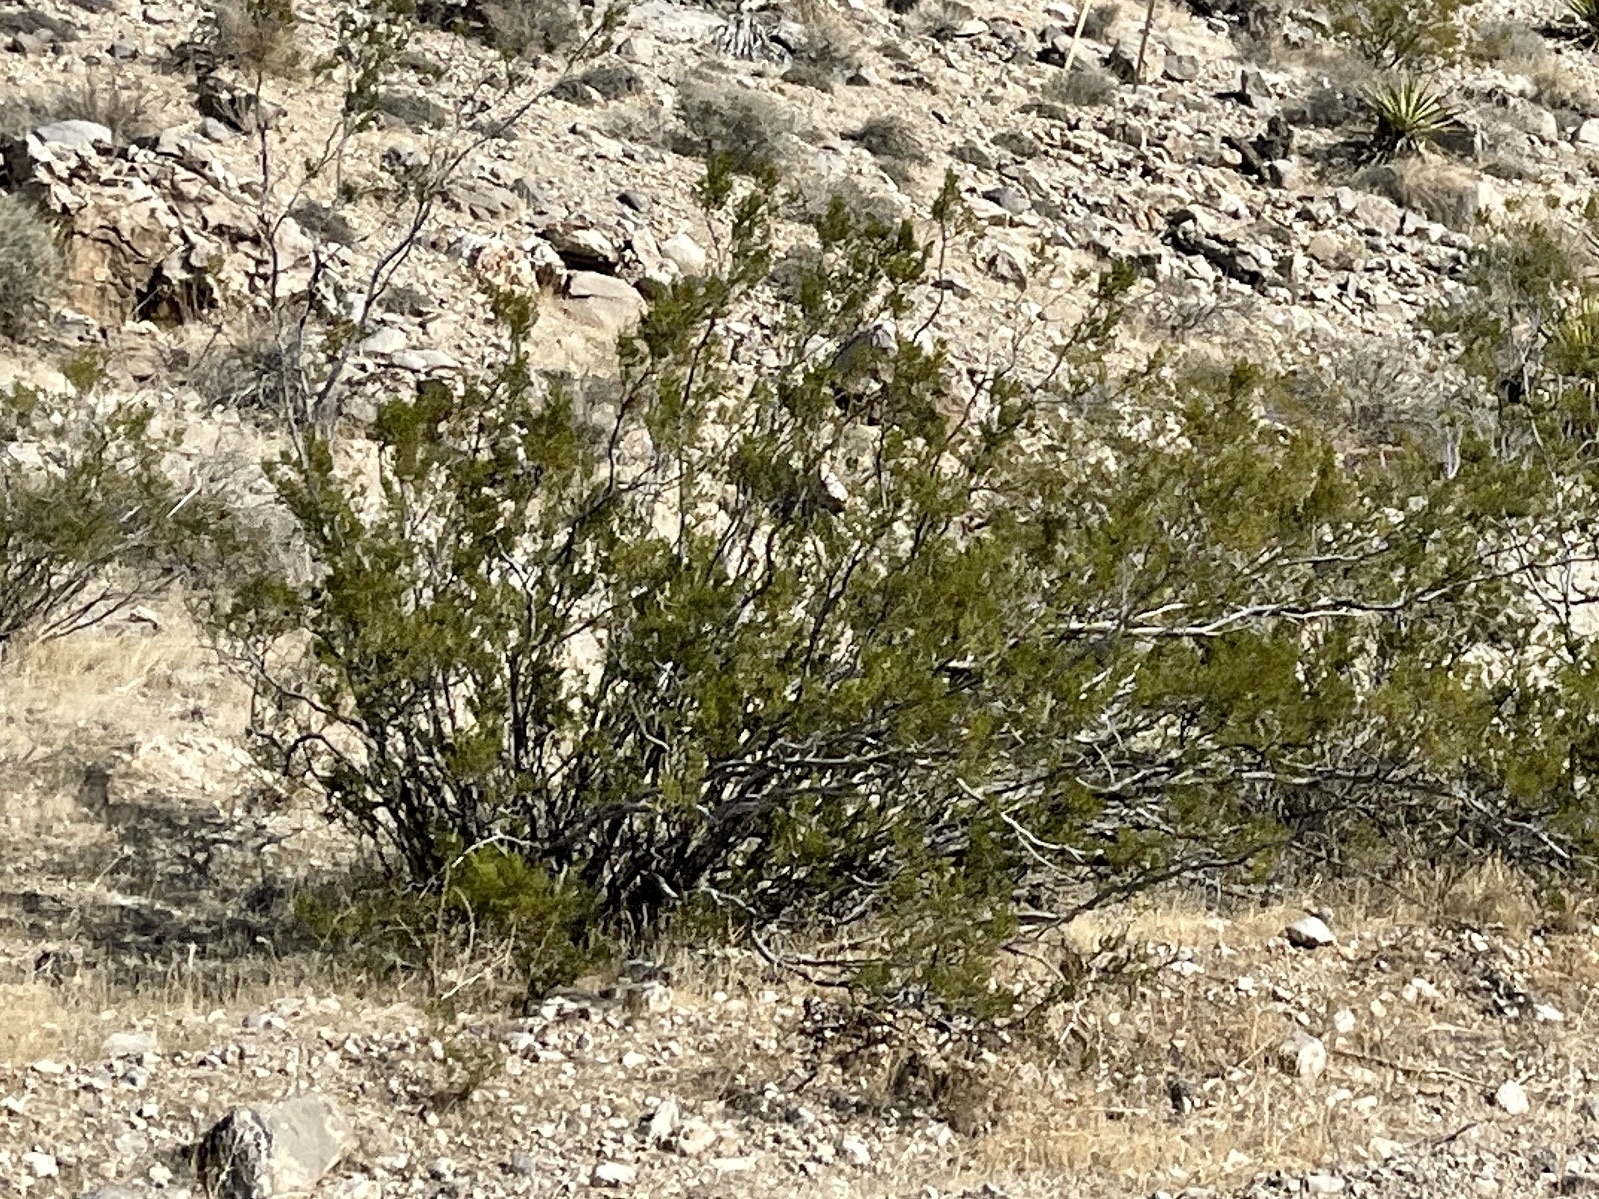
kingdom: Plantae
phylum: Tracheophyta
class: Magnoliopsida
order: Zygophyllales
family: Zygophyllaceae
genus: Larrea
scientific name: Larrea tridentata
